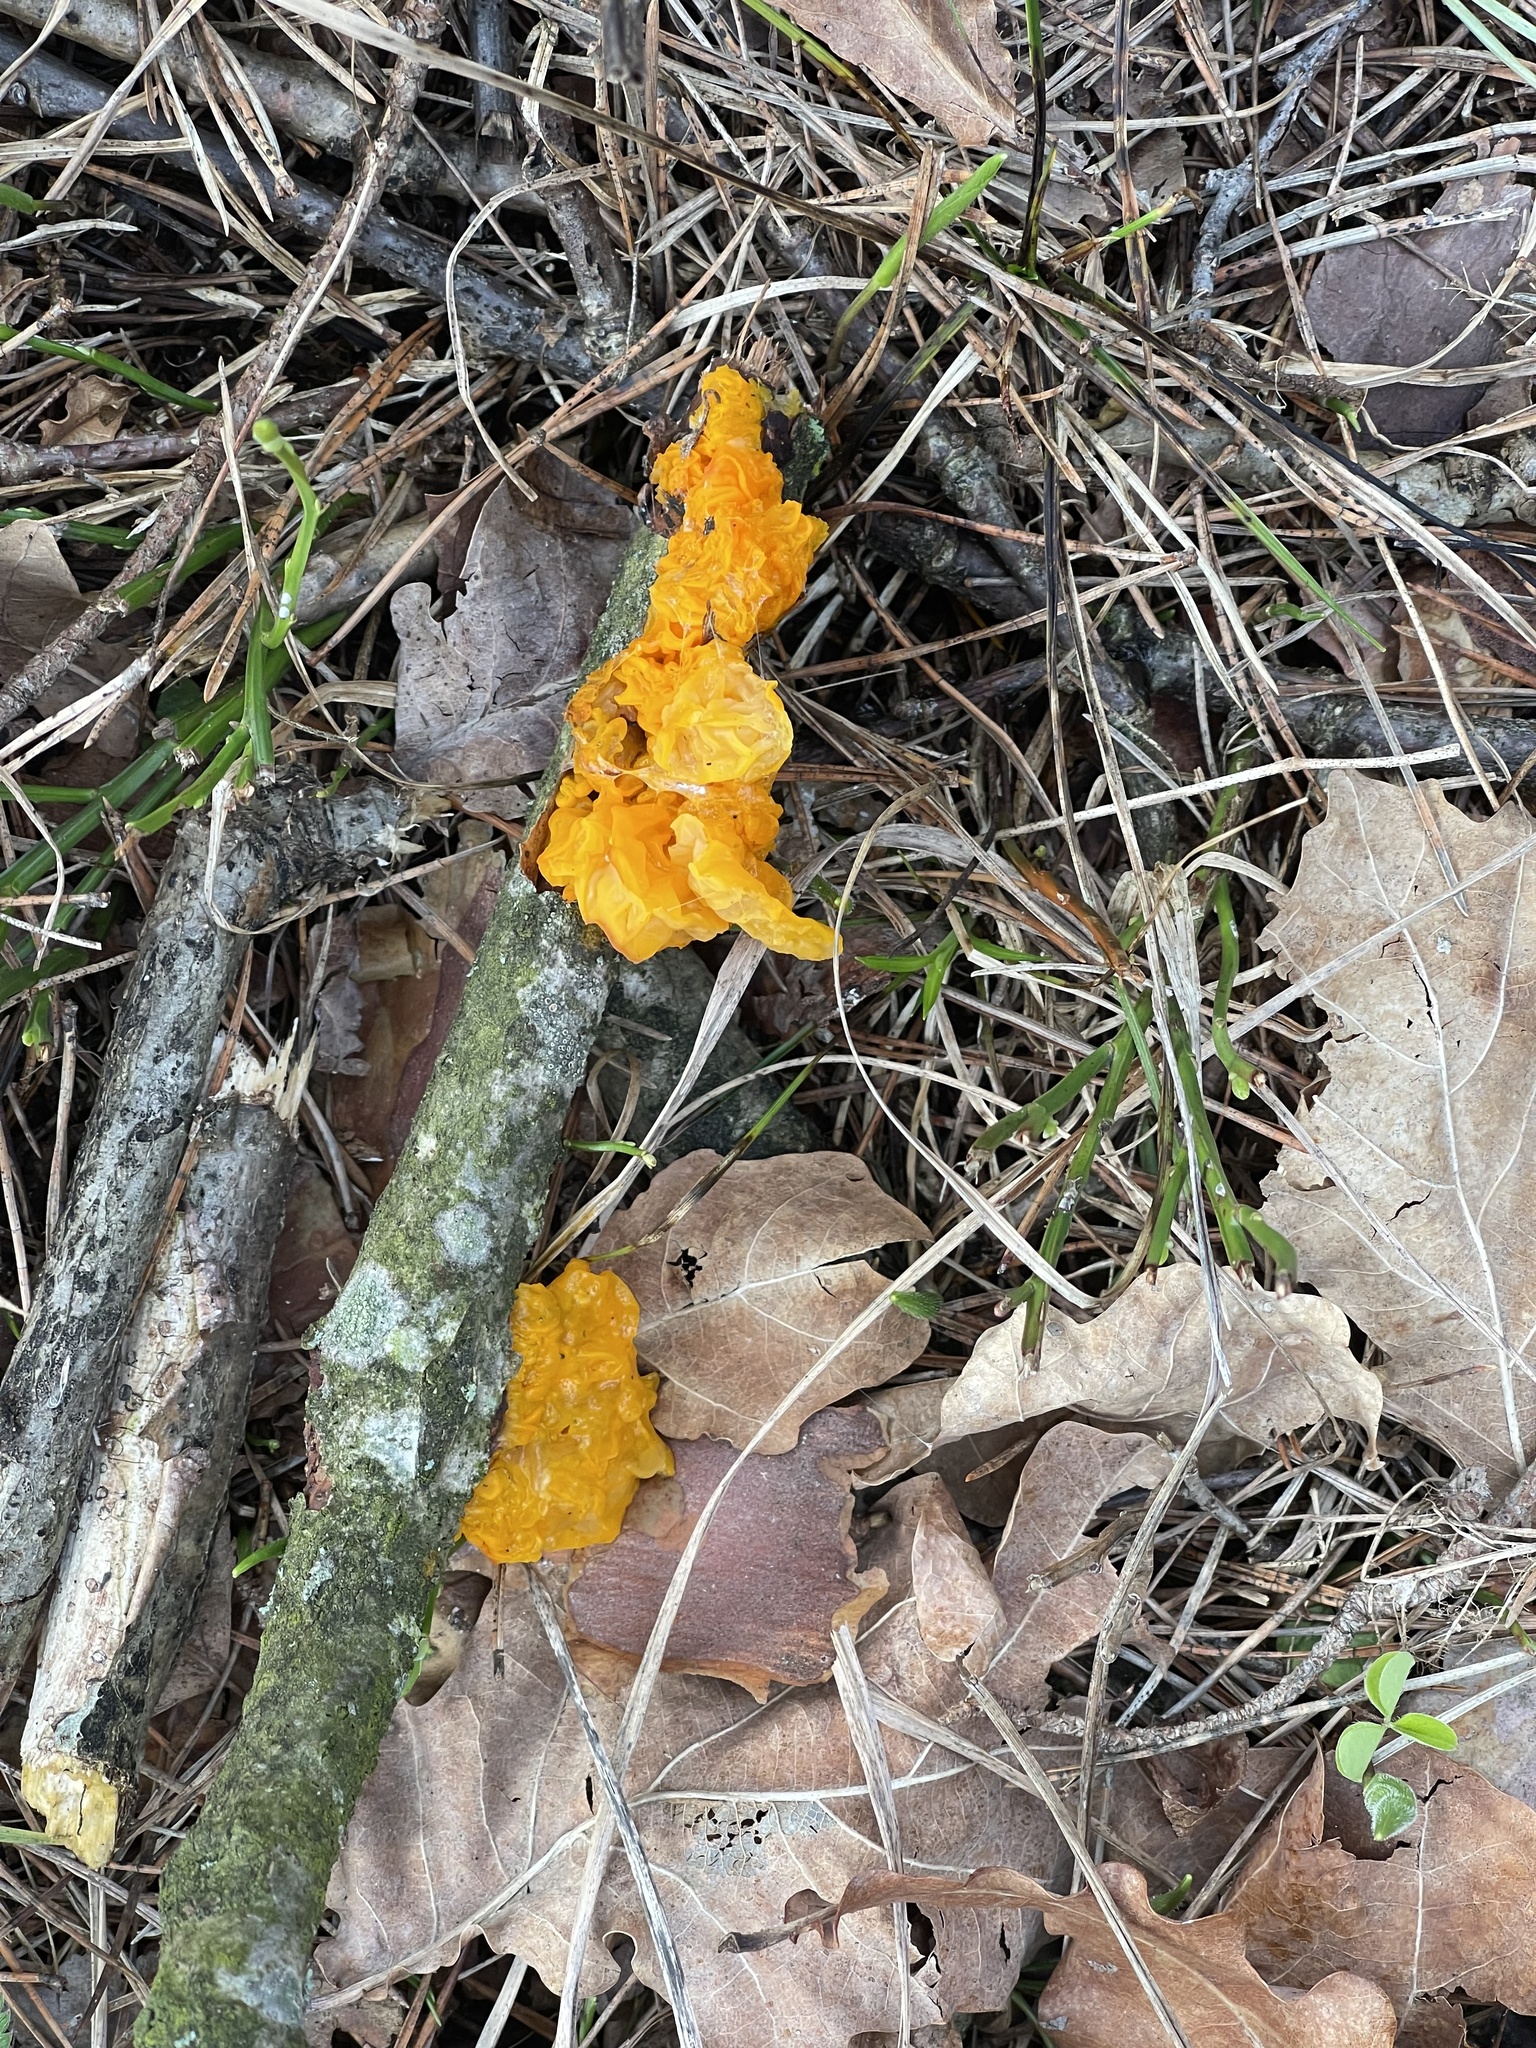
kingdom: Fungi
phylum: Basidiomycota
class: Tremellomycetes
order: Tremellales
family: Tremellaceae
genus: Tremella
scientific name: Tremella mesenterica
